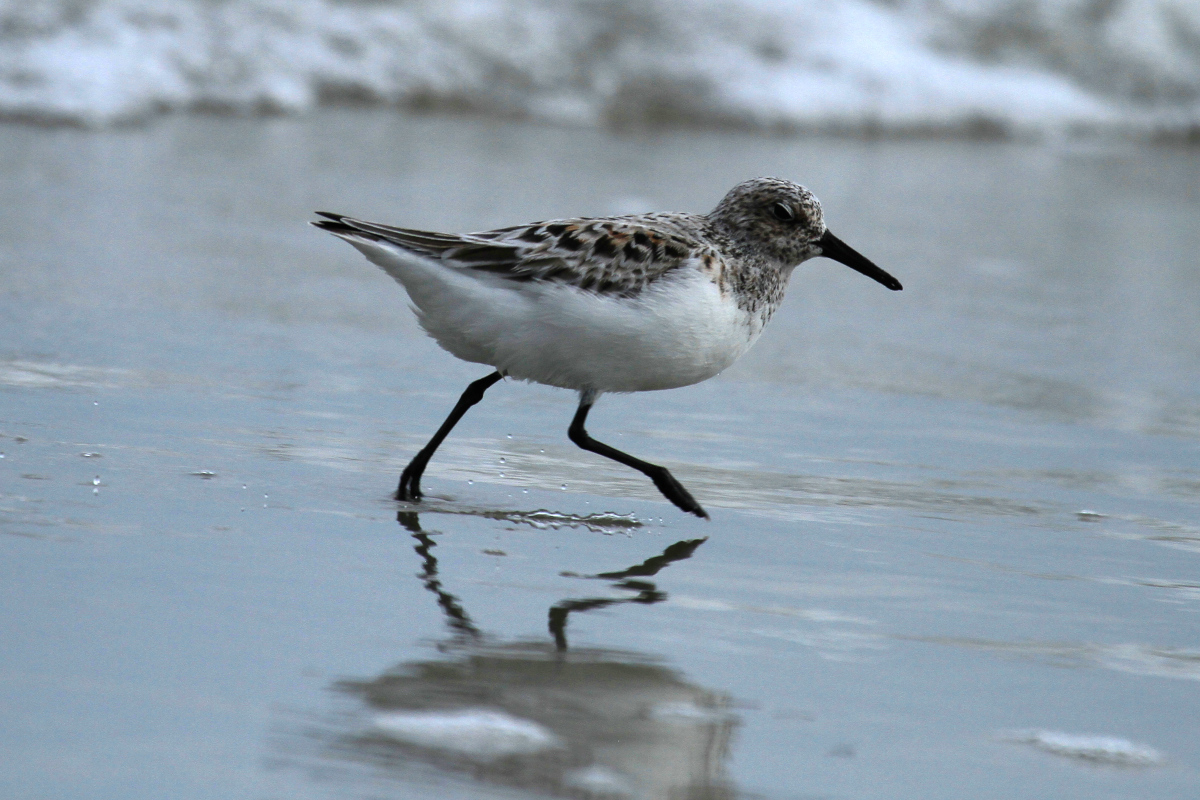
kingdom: Animalia
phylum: Chordata
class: Aves
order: Charadriiformes
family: Scolopacidae
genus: Calidris
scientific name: Calidris alba
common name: Sanderling
